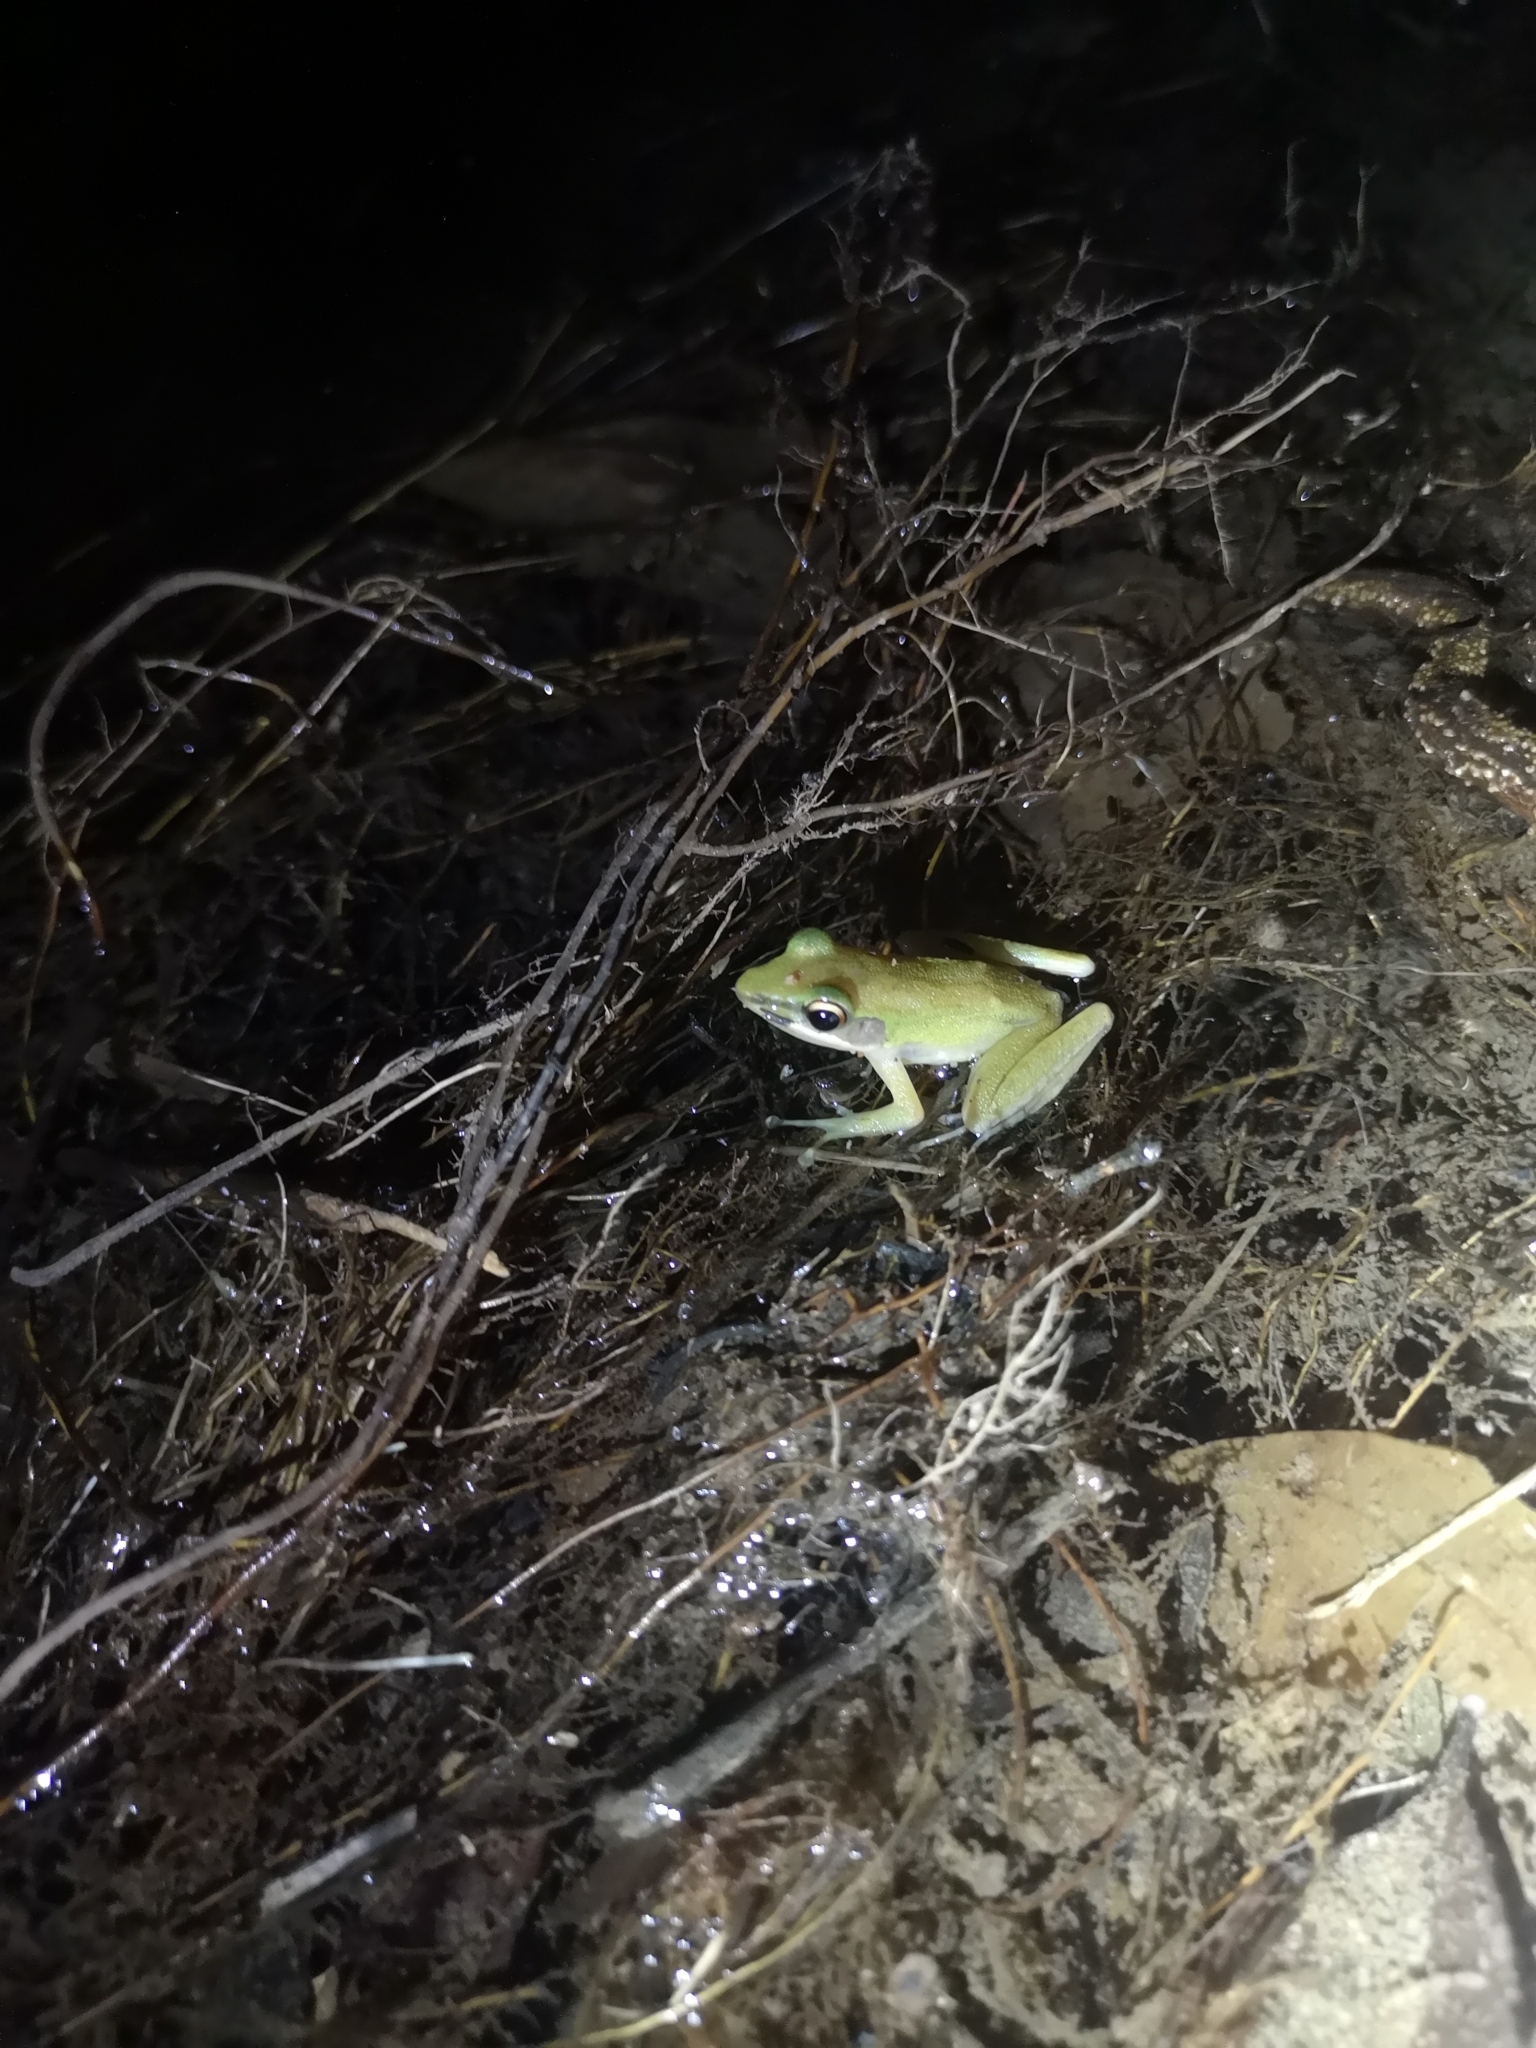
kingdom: Animalia
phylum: Chordata
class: Amphibia
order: Anura
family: Ranidae
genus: Chalcorana
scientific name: Chalcorana labialis
